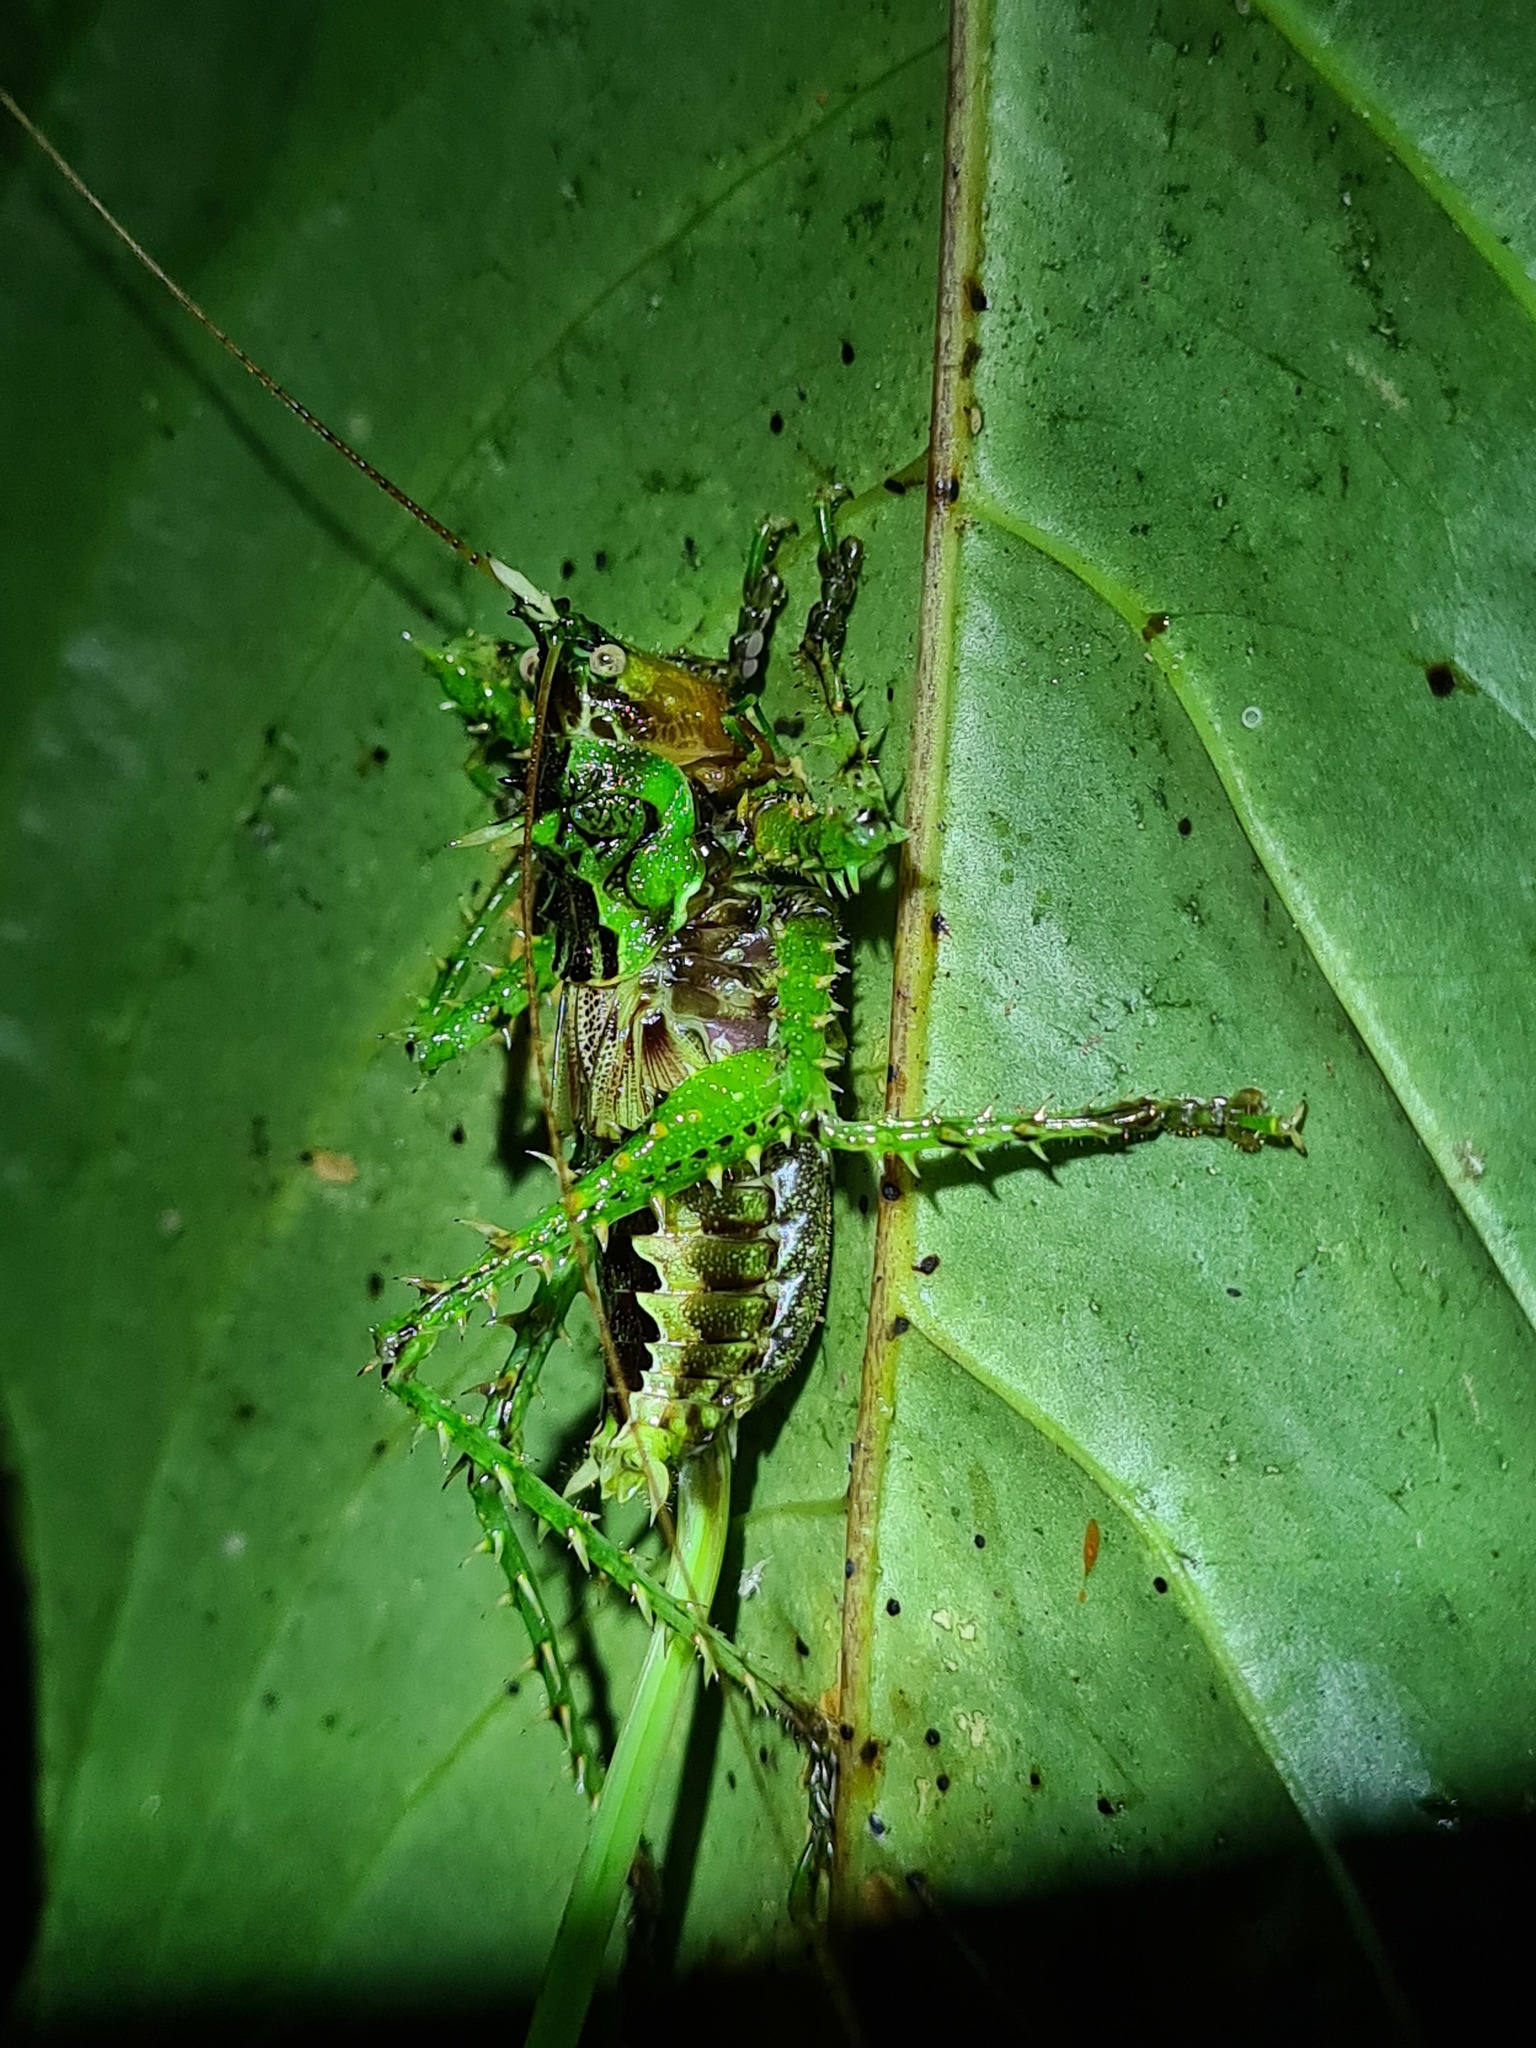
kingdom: Animalia
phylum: Arthropoda
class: Insecta
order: Orthoptera
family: Tettigoniidae
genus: Panacanthus
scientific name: Panacanthus varius
